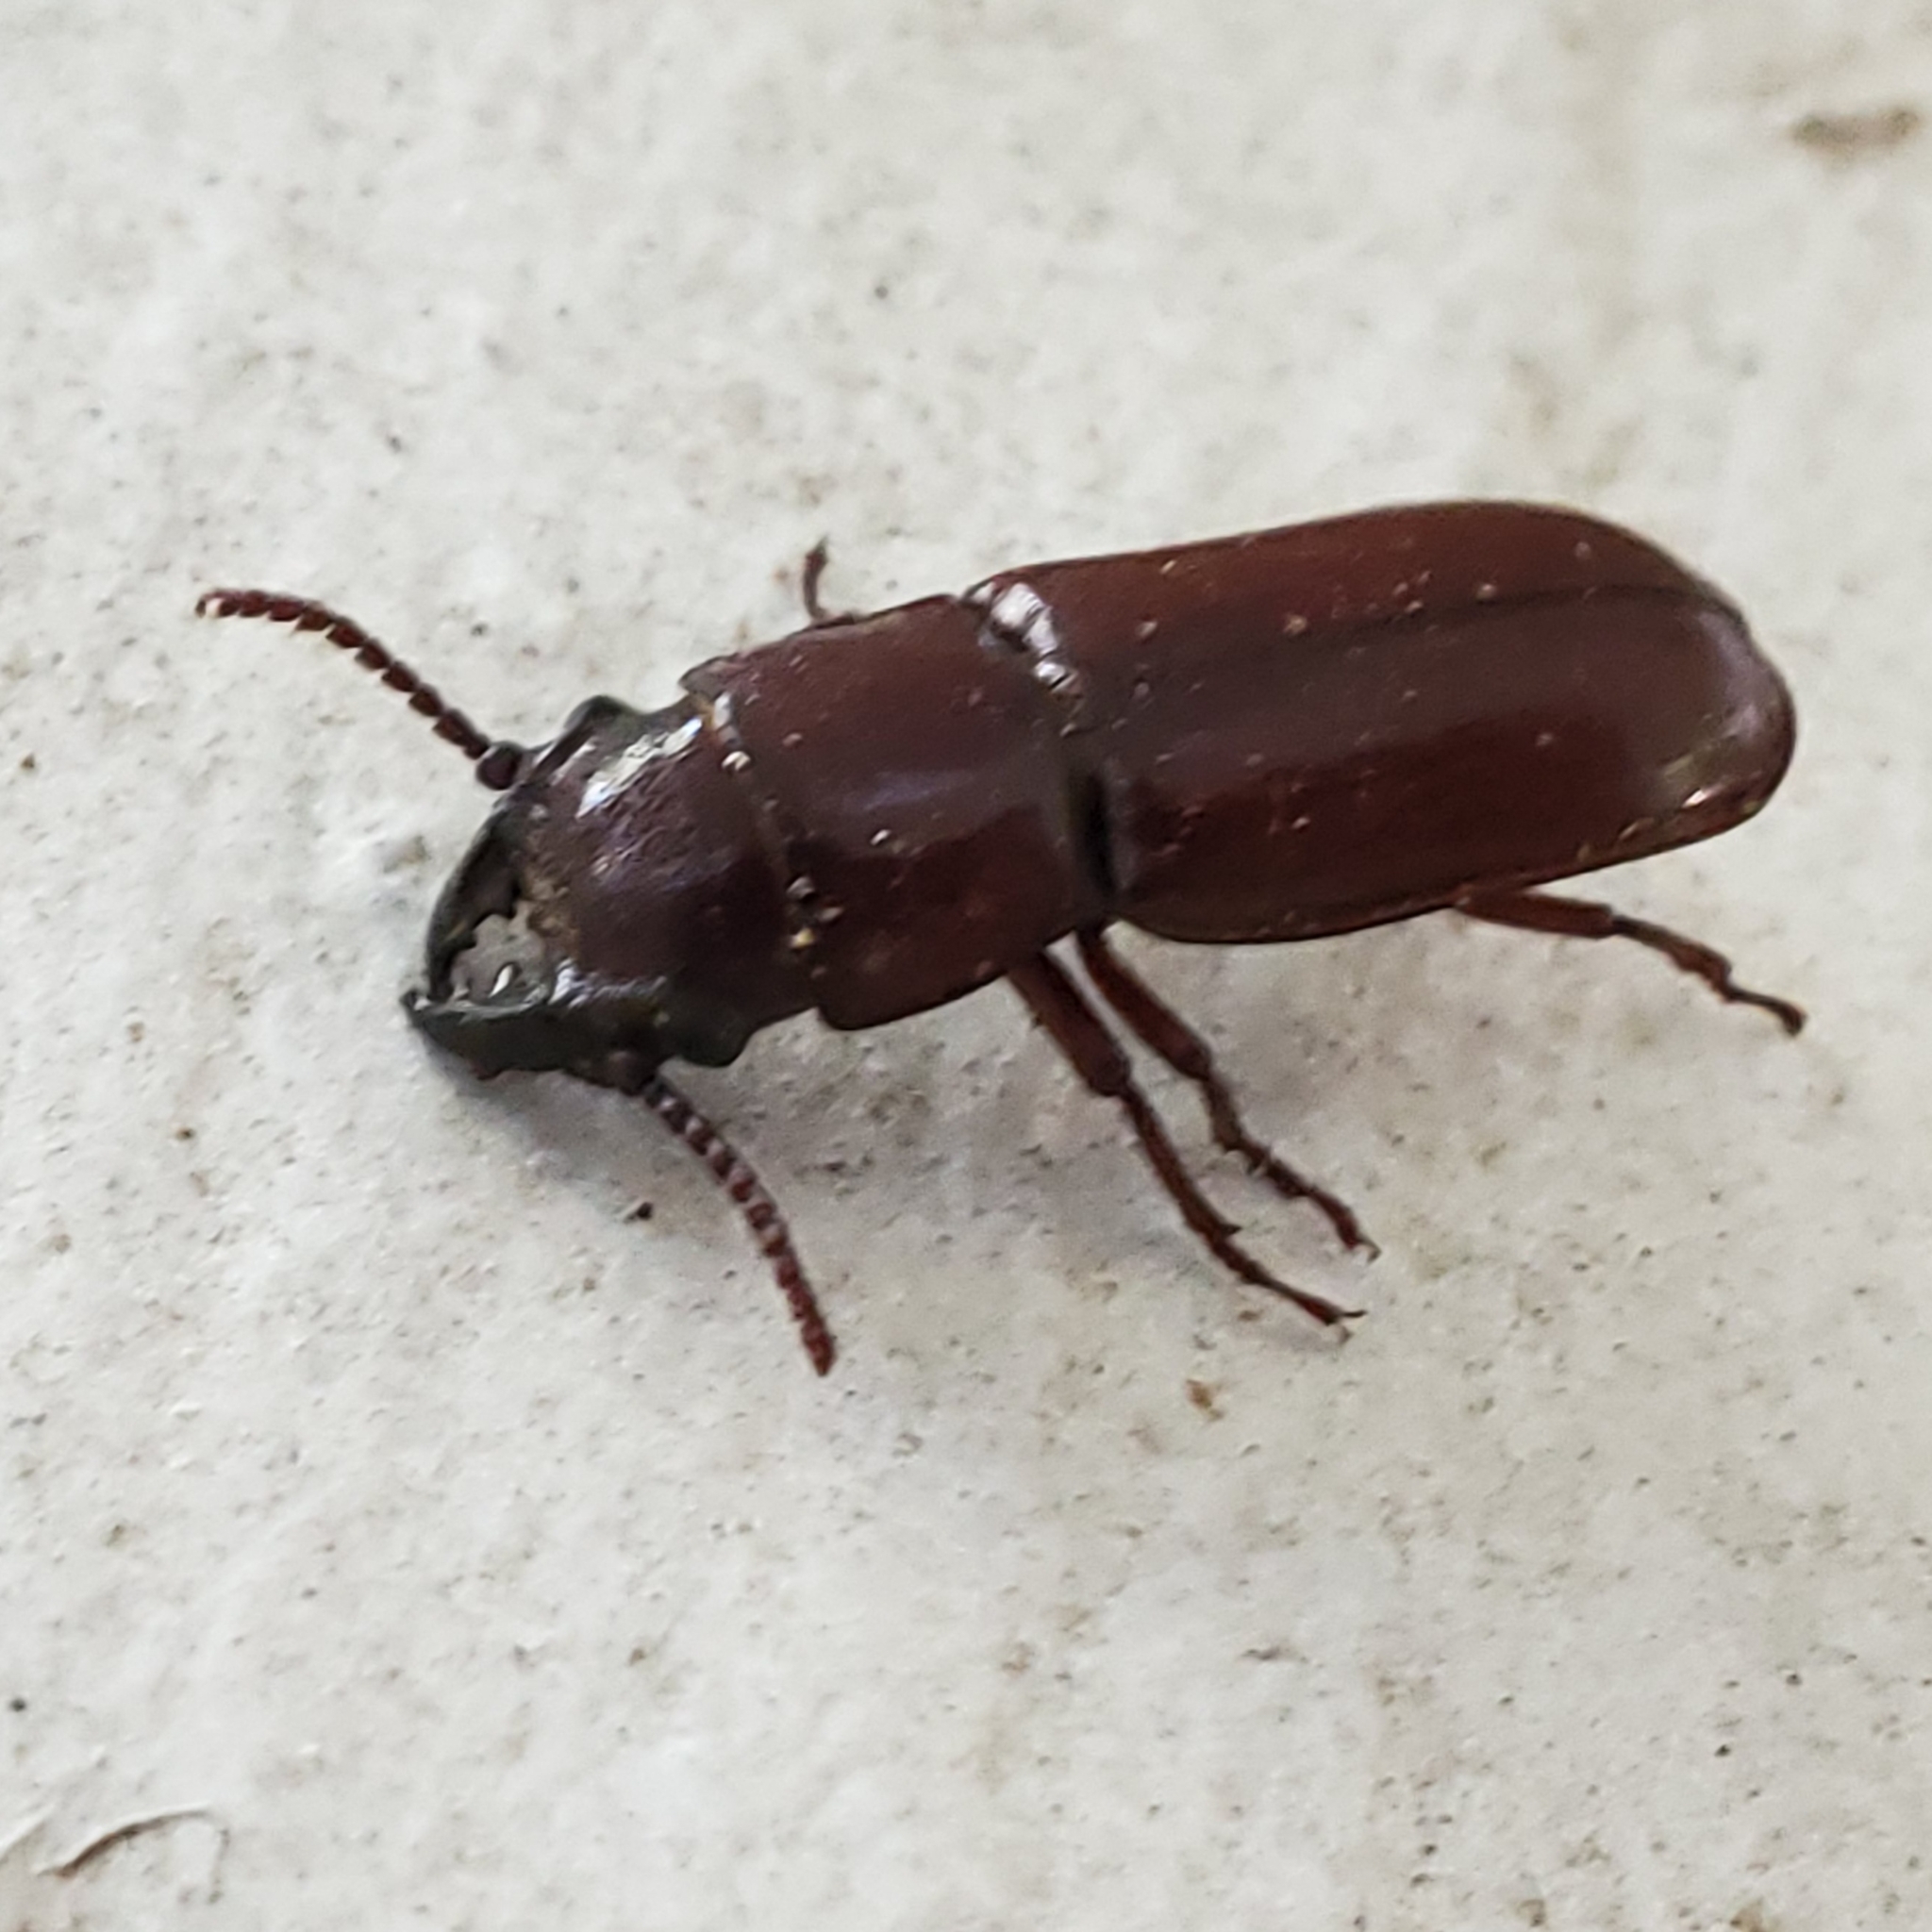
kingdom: Animalia
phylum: Arthropoda
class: Insecta
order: Coleoptera
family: Cerambycidae
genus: Neandra
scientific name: Neandra brunnea
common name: Pole borer
